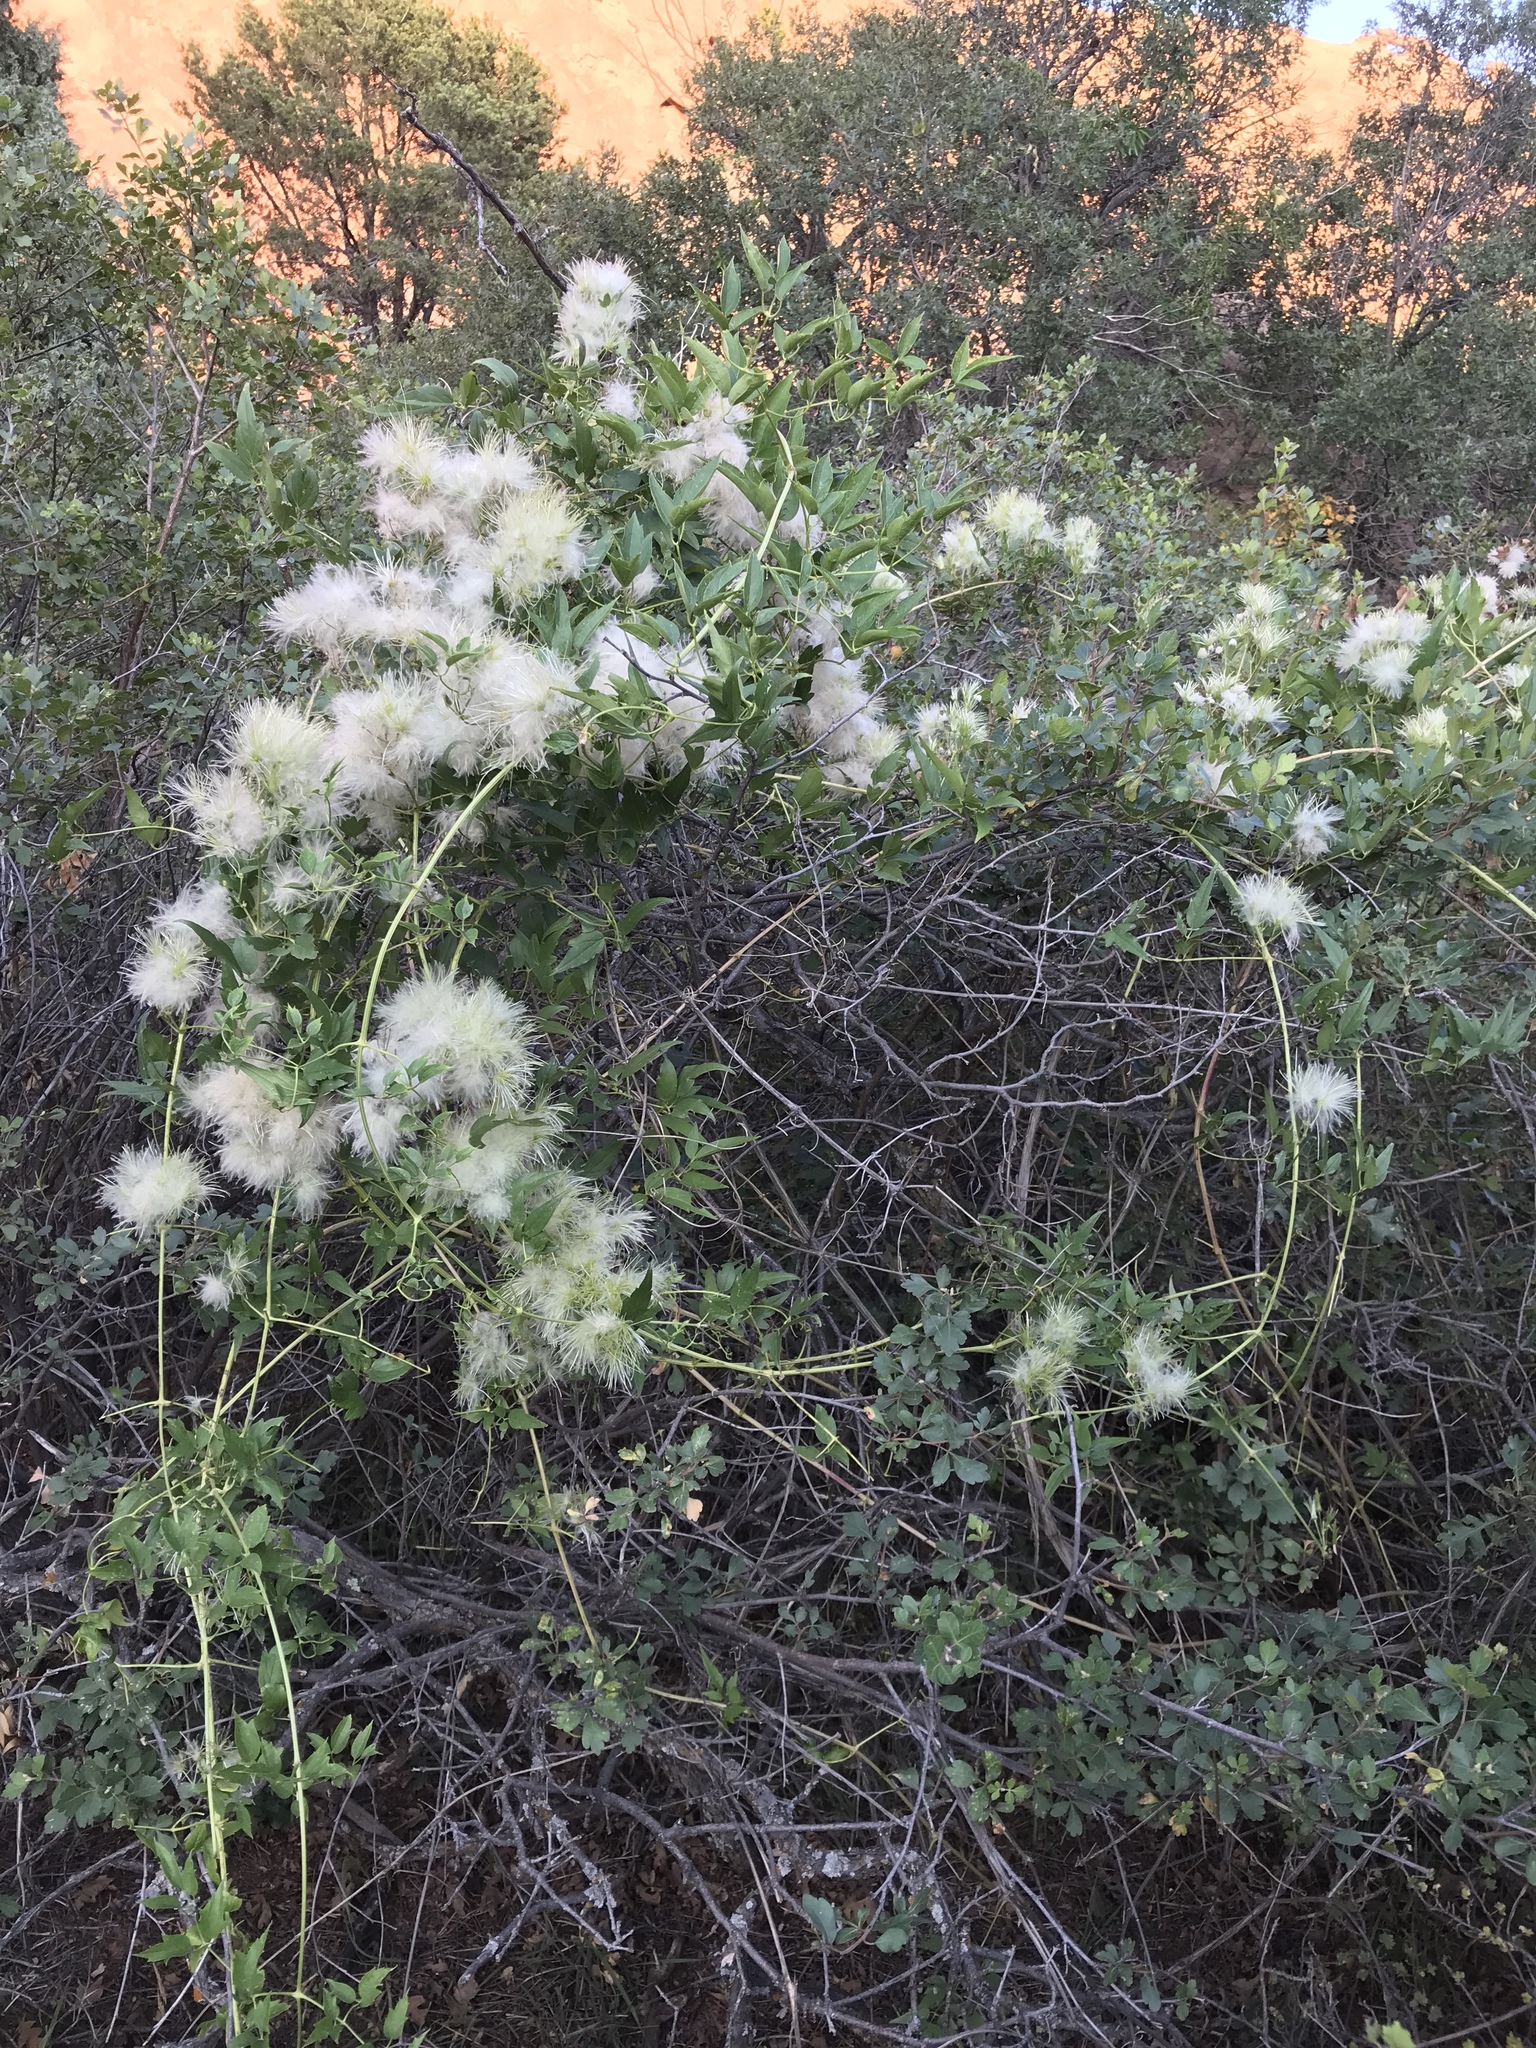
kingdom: Plantae
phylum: Tracheophyta
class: Magnoliopsida
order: Ranunculales
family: Ranunculaceae
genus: Clematis
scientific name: Clematis ligusticifolia
